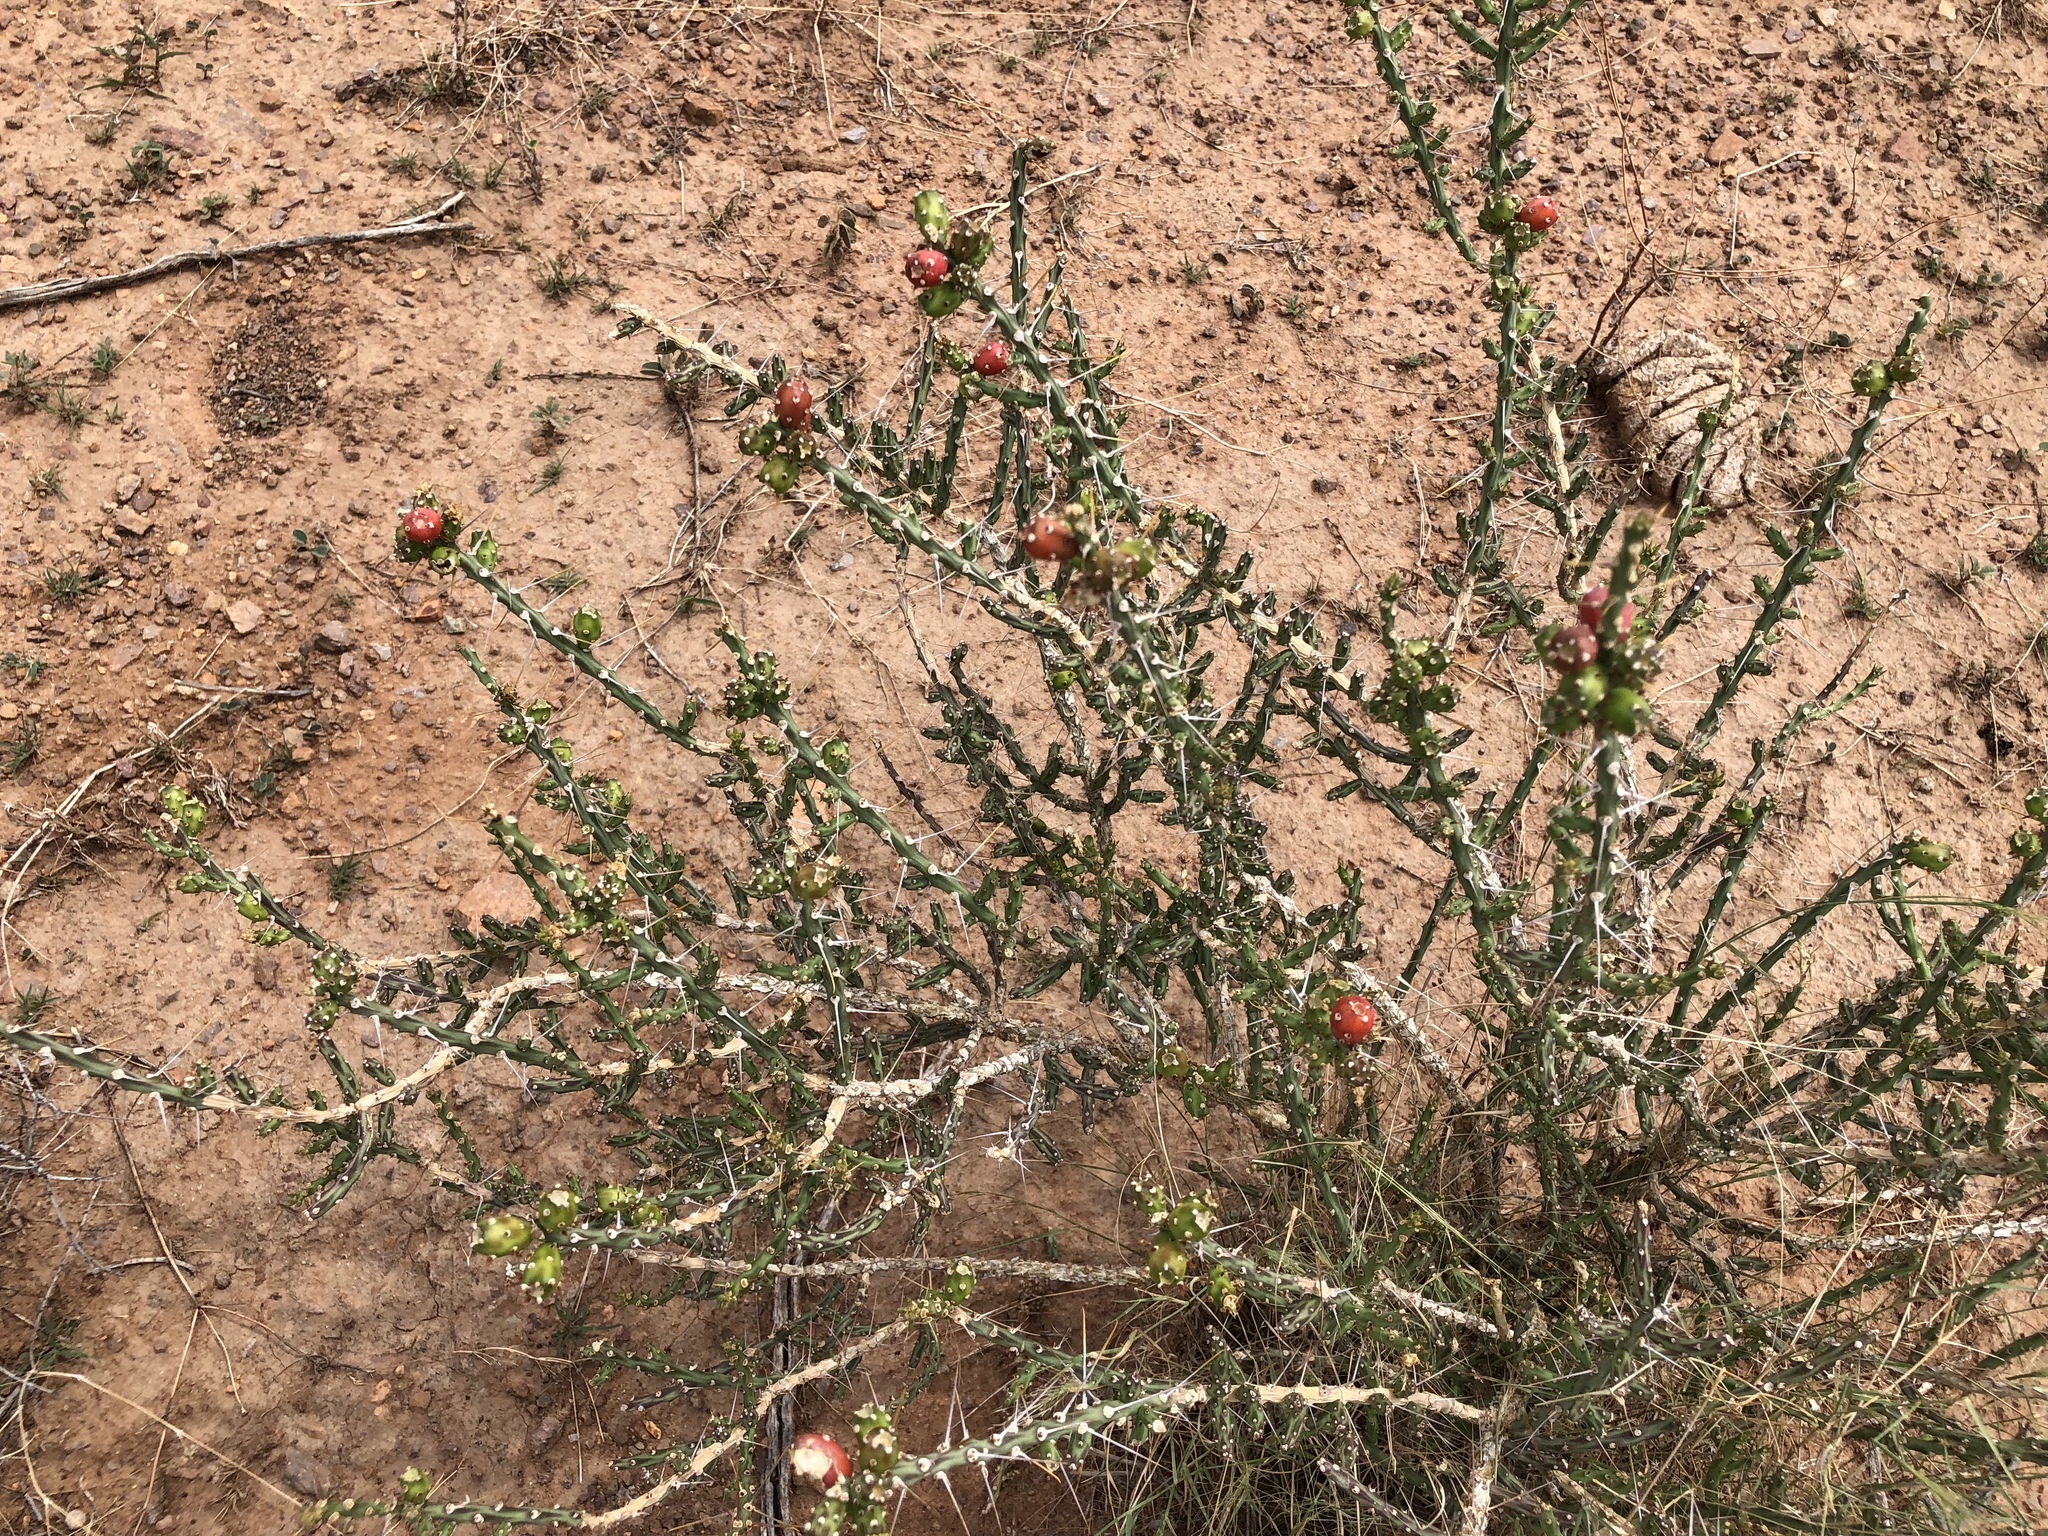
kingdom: Plantae
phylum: Tracheophyta
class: Magnoliopsida
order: Caryophyllales
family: Cactaceae
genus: Cylindropuntia
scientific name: Cylindropuntia leptocaulis
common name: Christmas cactus
